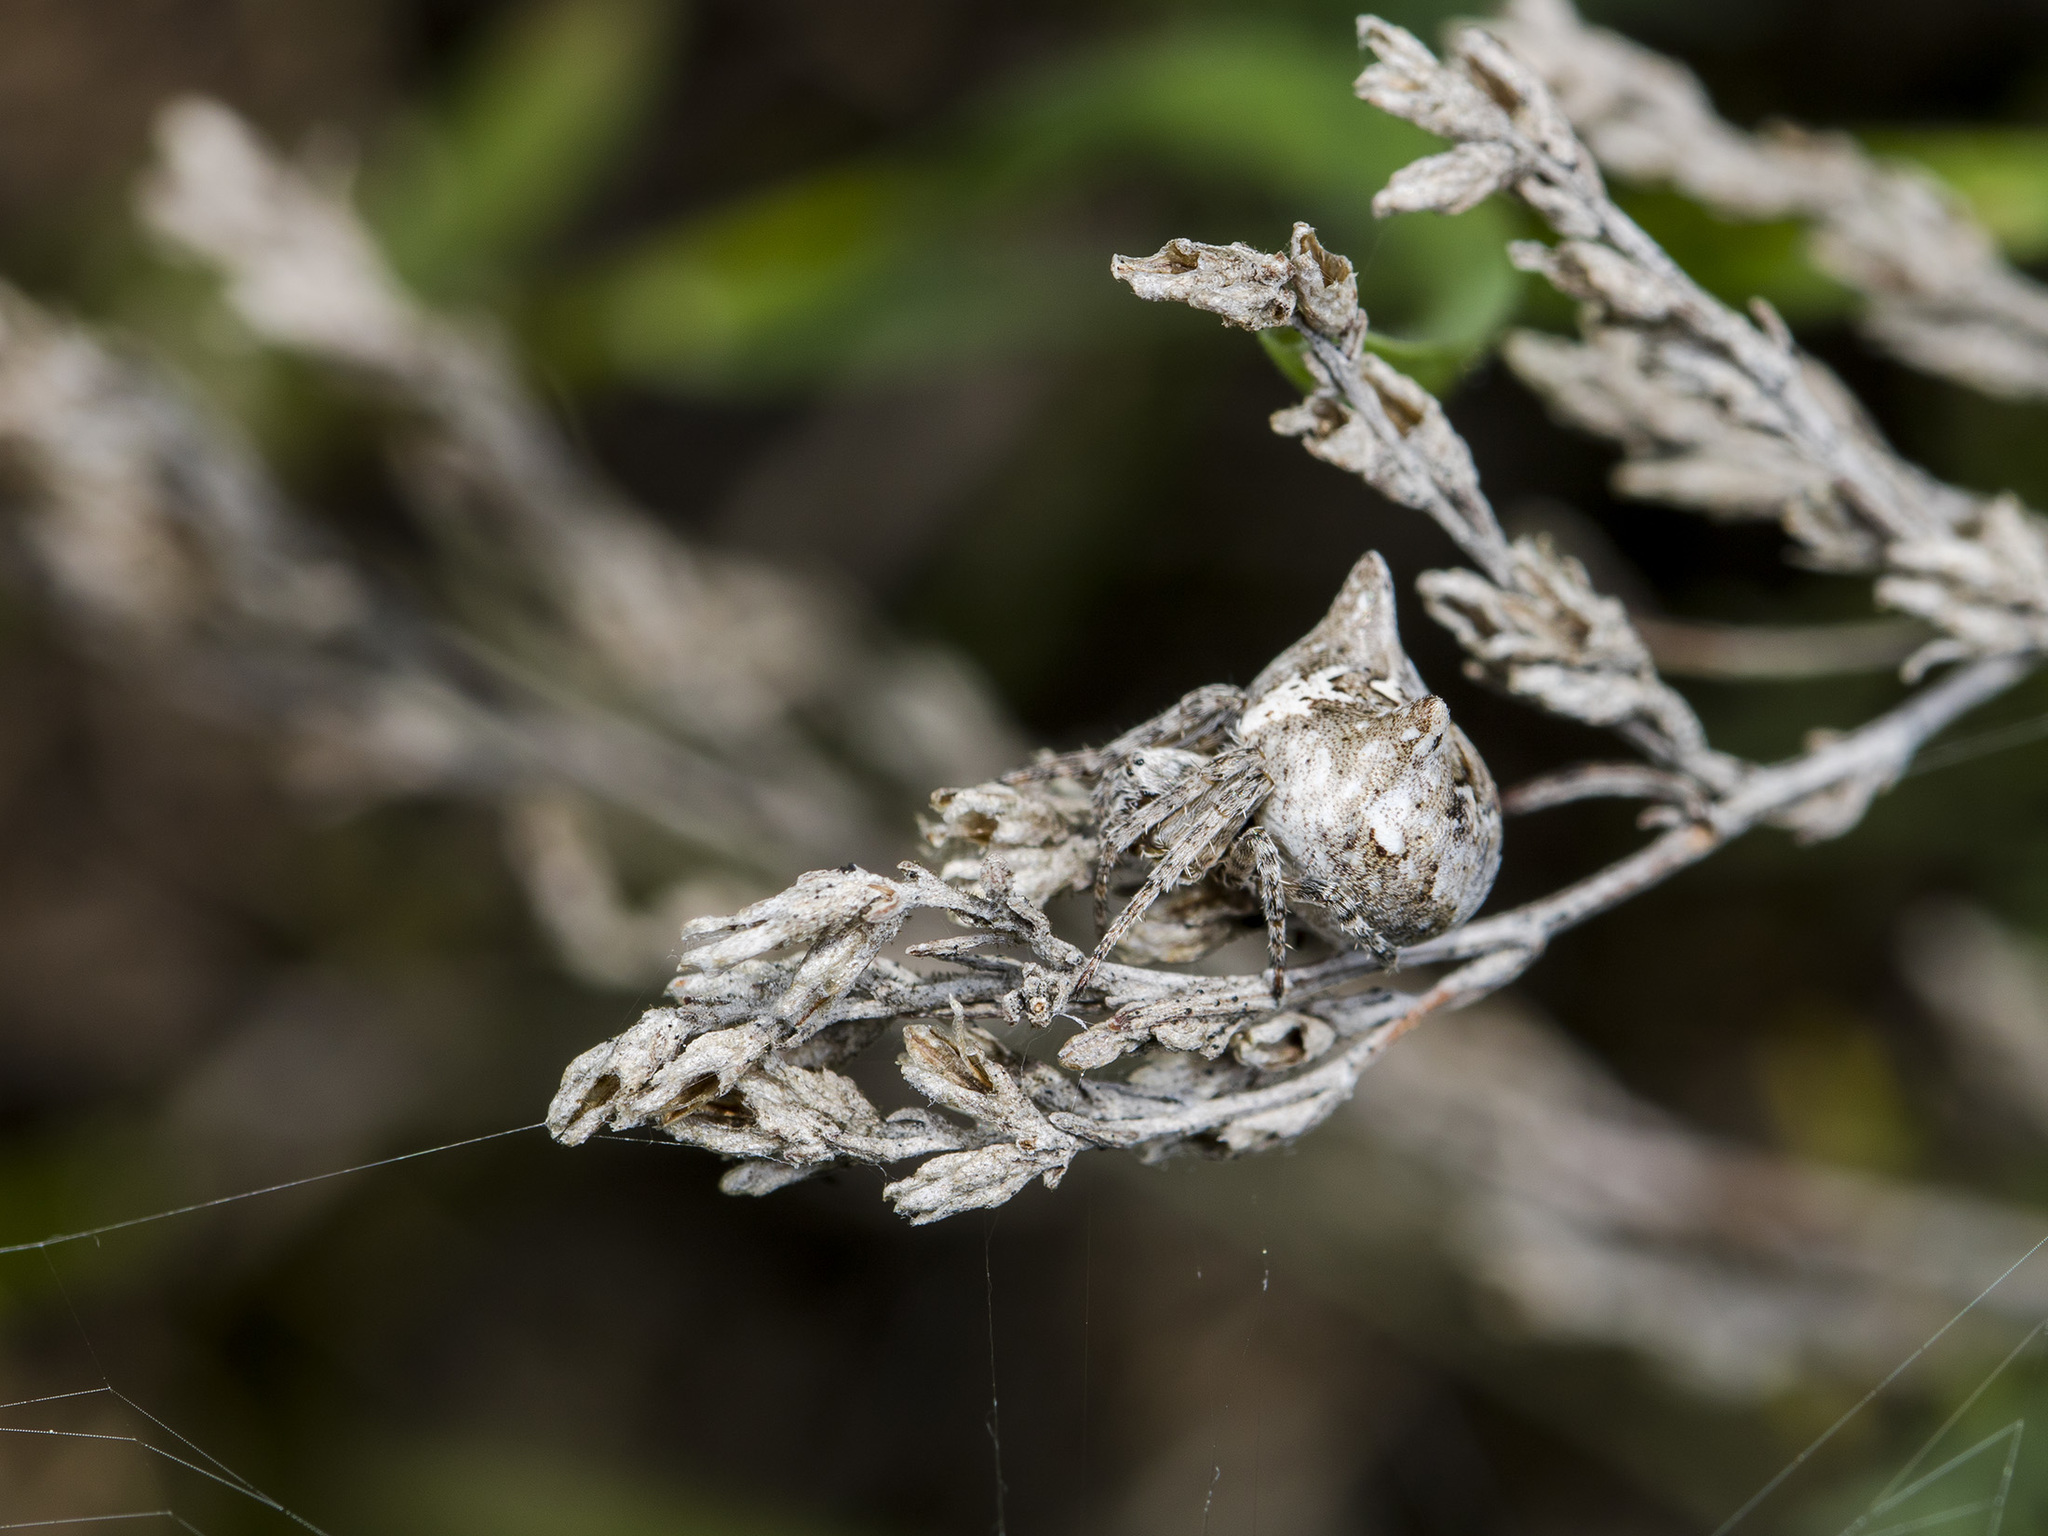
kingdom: Animalia
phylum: Arthropoda
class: Arachnida
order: Araneae
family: Araneidae
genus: Gibbaranea
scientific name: Gibbaranea ullrichi
